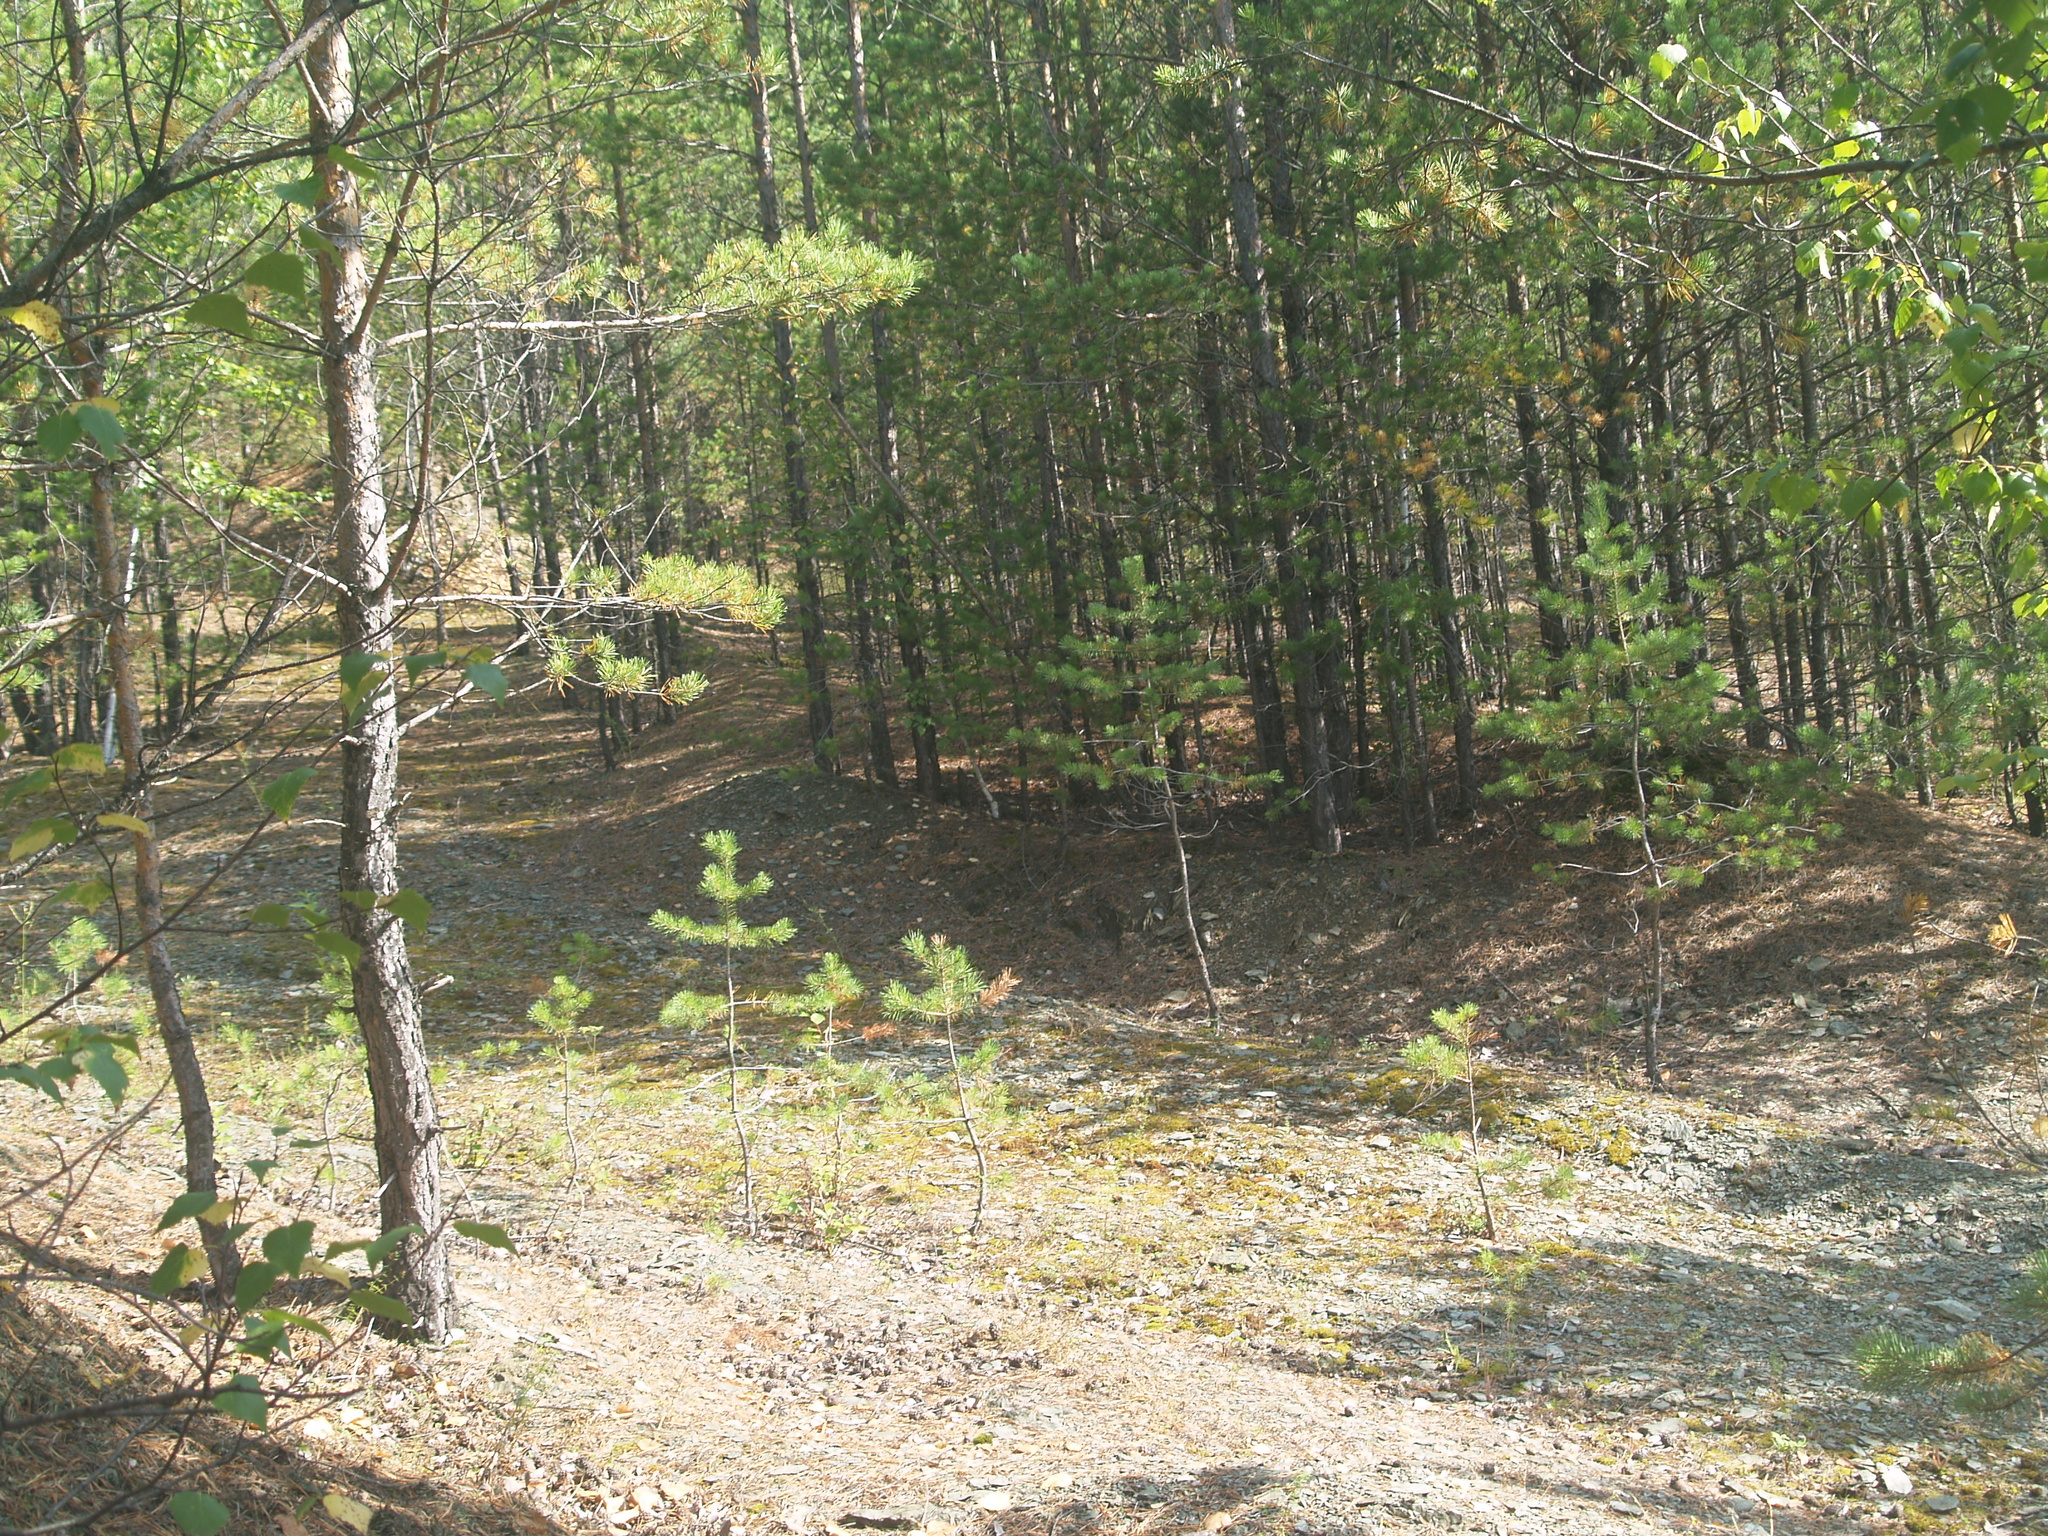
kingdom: Plantae
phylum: Tracheophyta
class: Pinopsida
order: Pinales
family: Pinaceae
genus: Pinus
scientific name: Pinus sylvestris
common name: Scots pine
